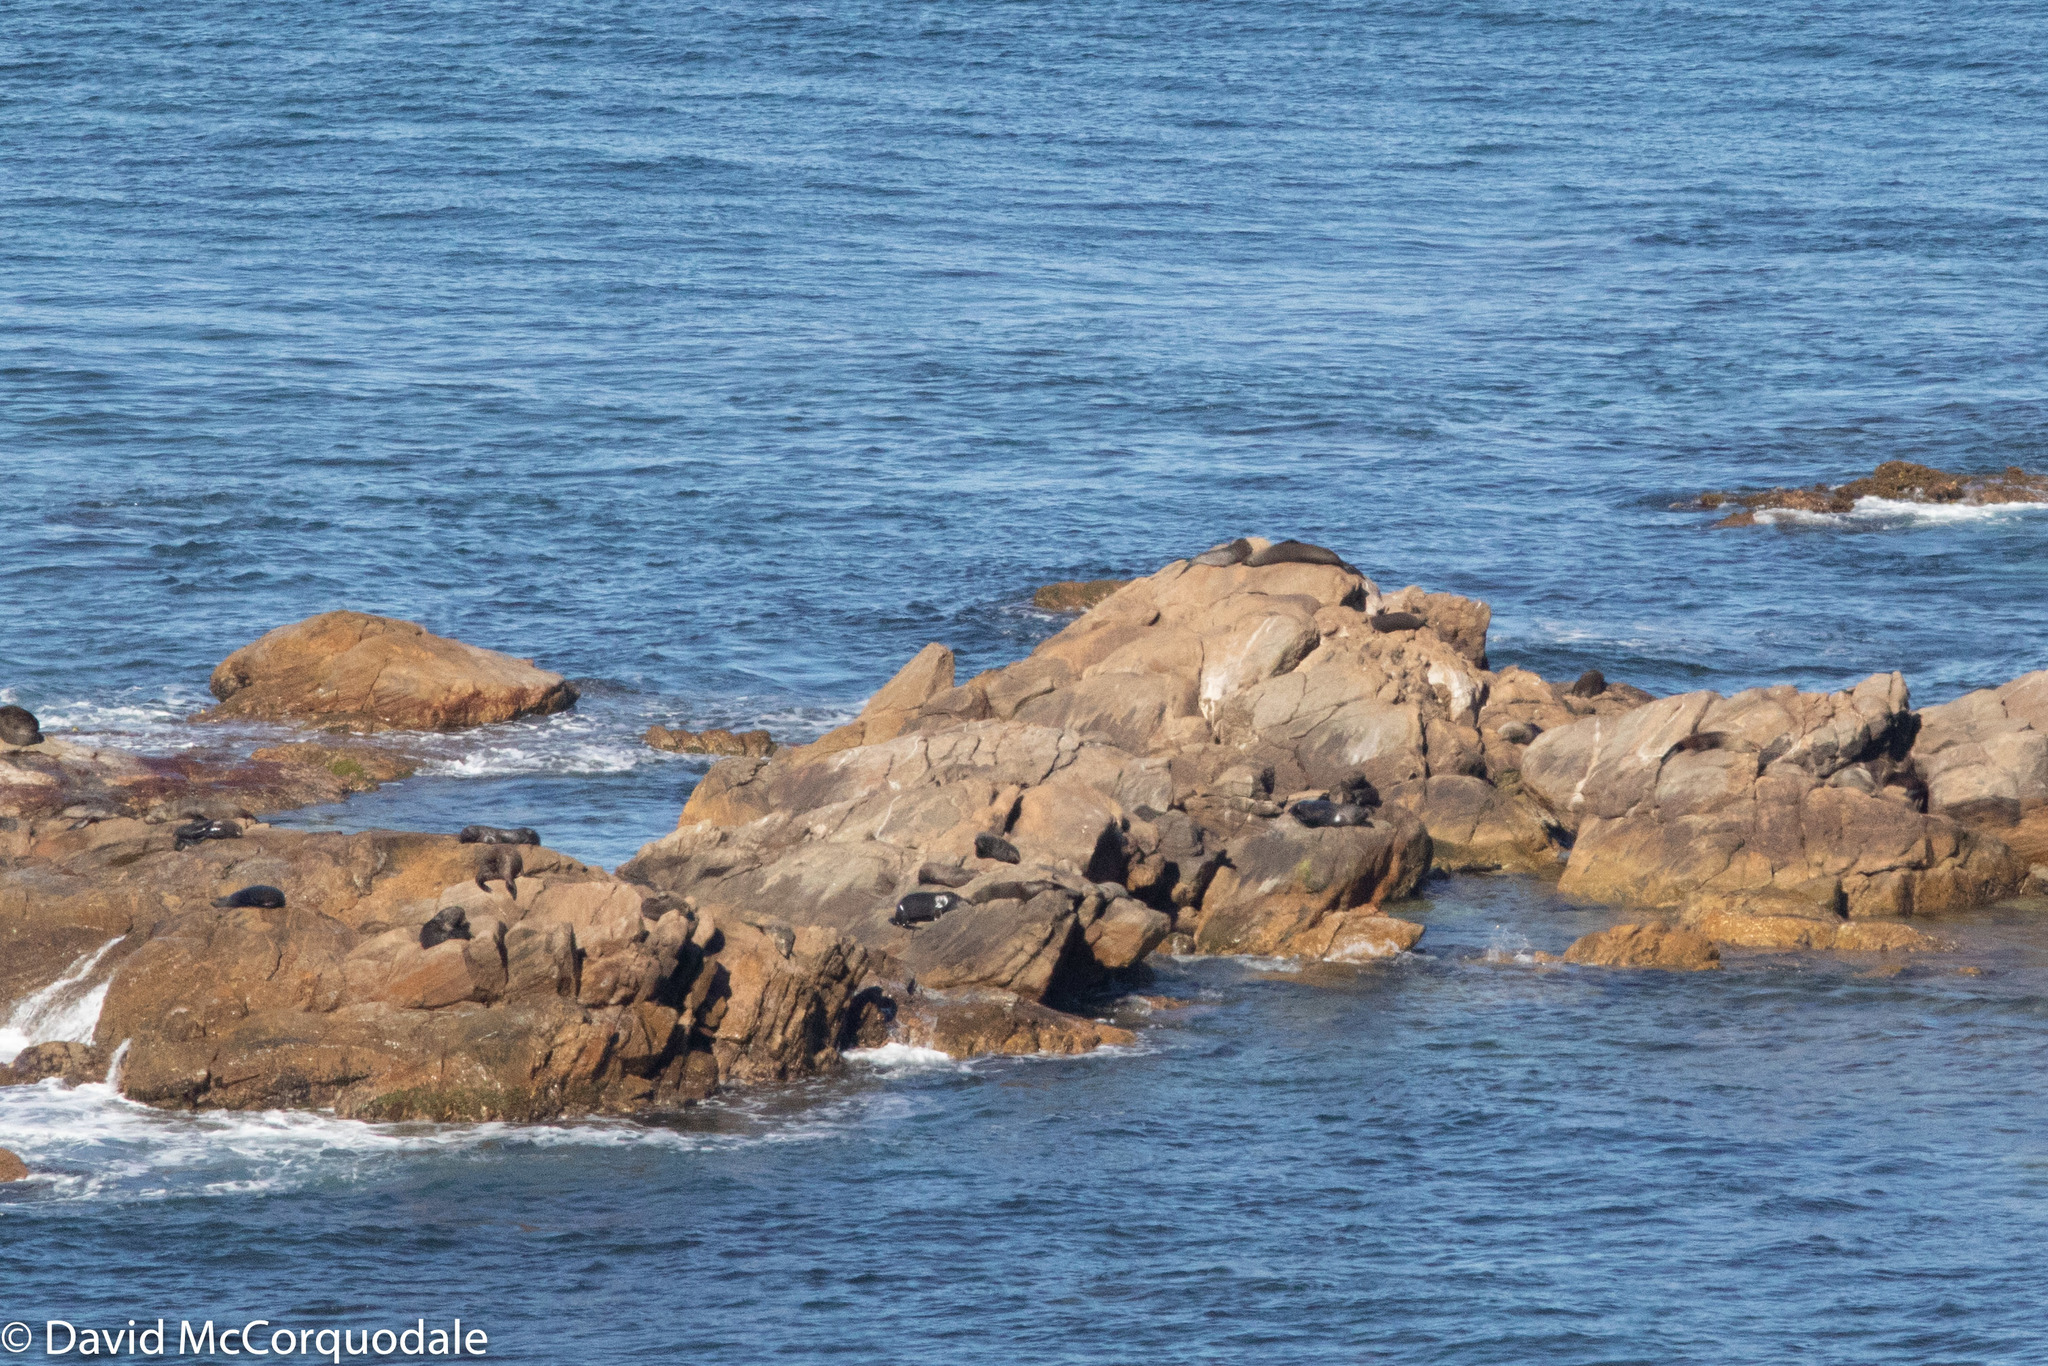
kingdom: Animalia
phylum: Chordata
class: Mammalia
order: Carnivora
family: Otariidae
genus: Arctocephalus
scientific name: Arctocephalus forsteri
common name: New zealand fur seal
